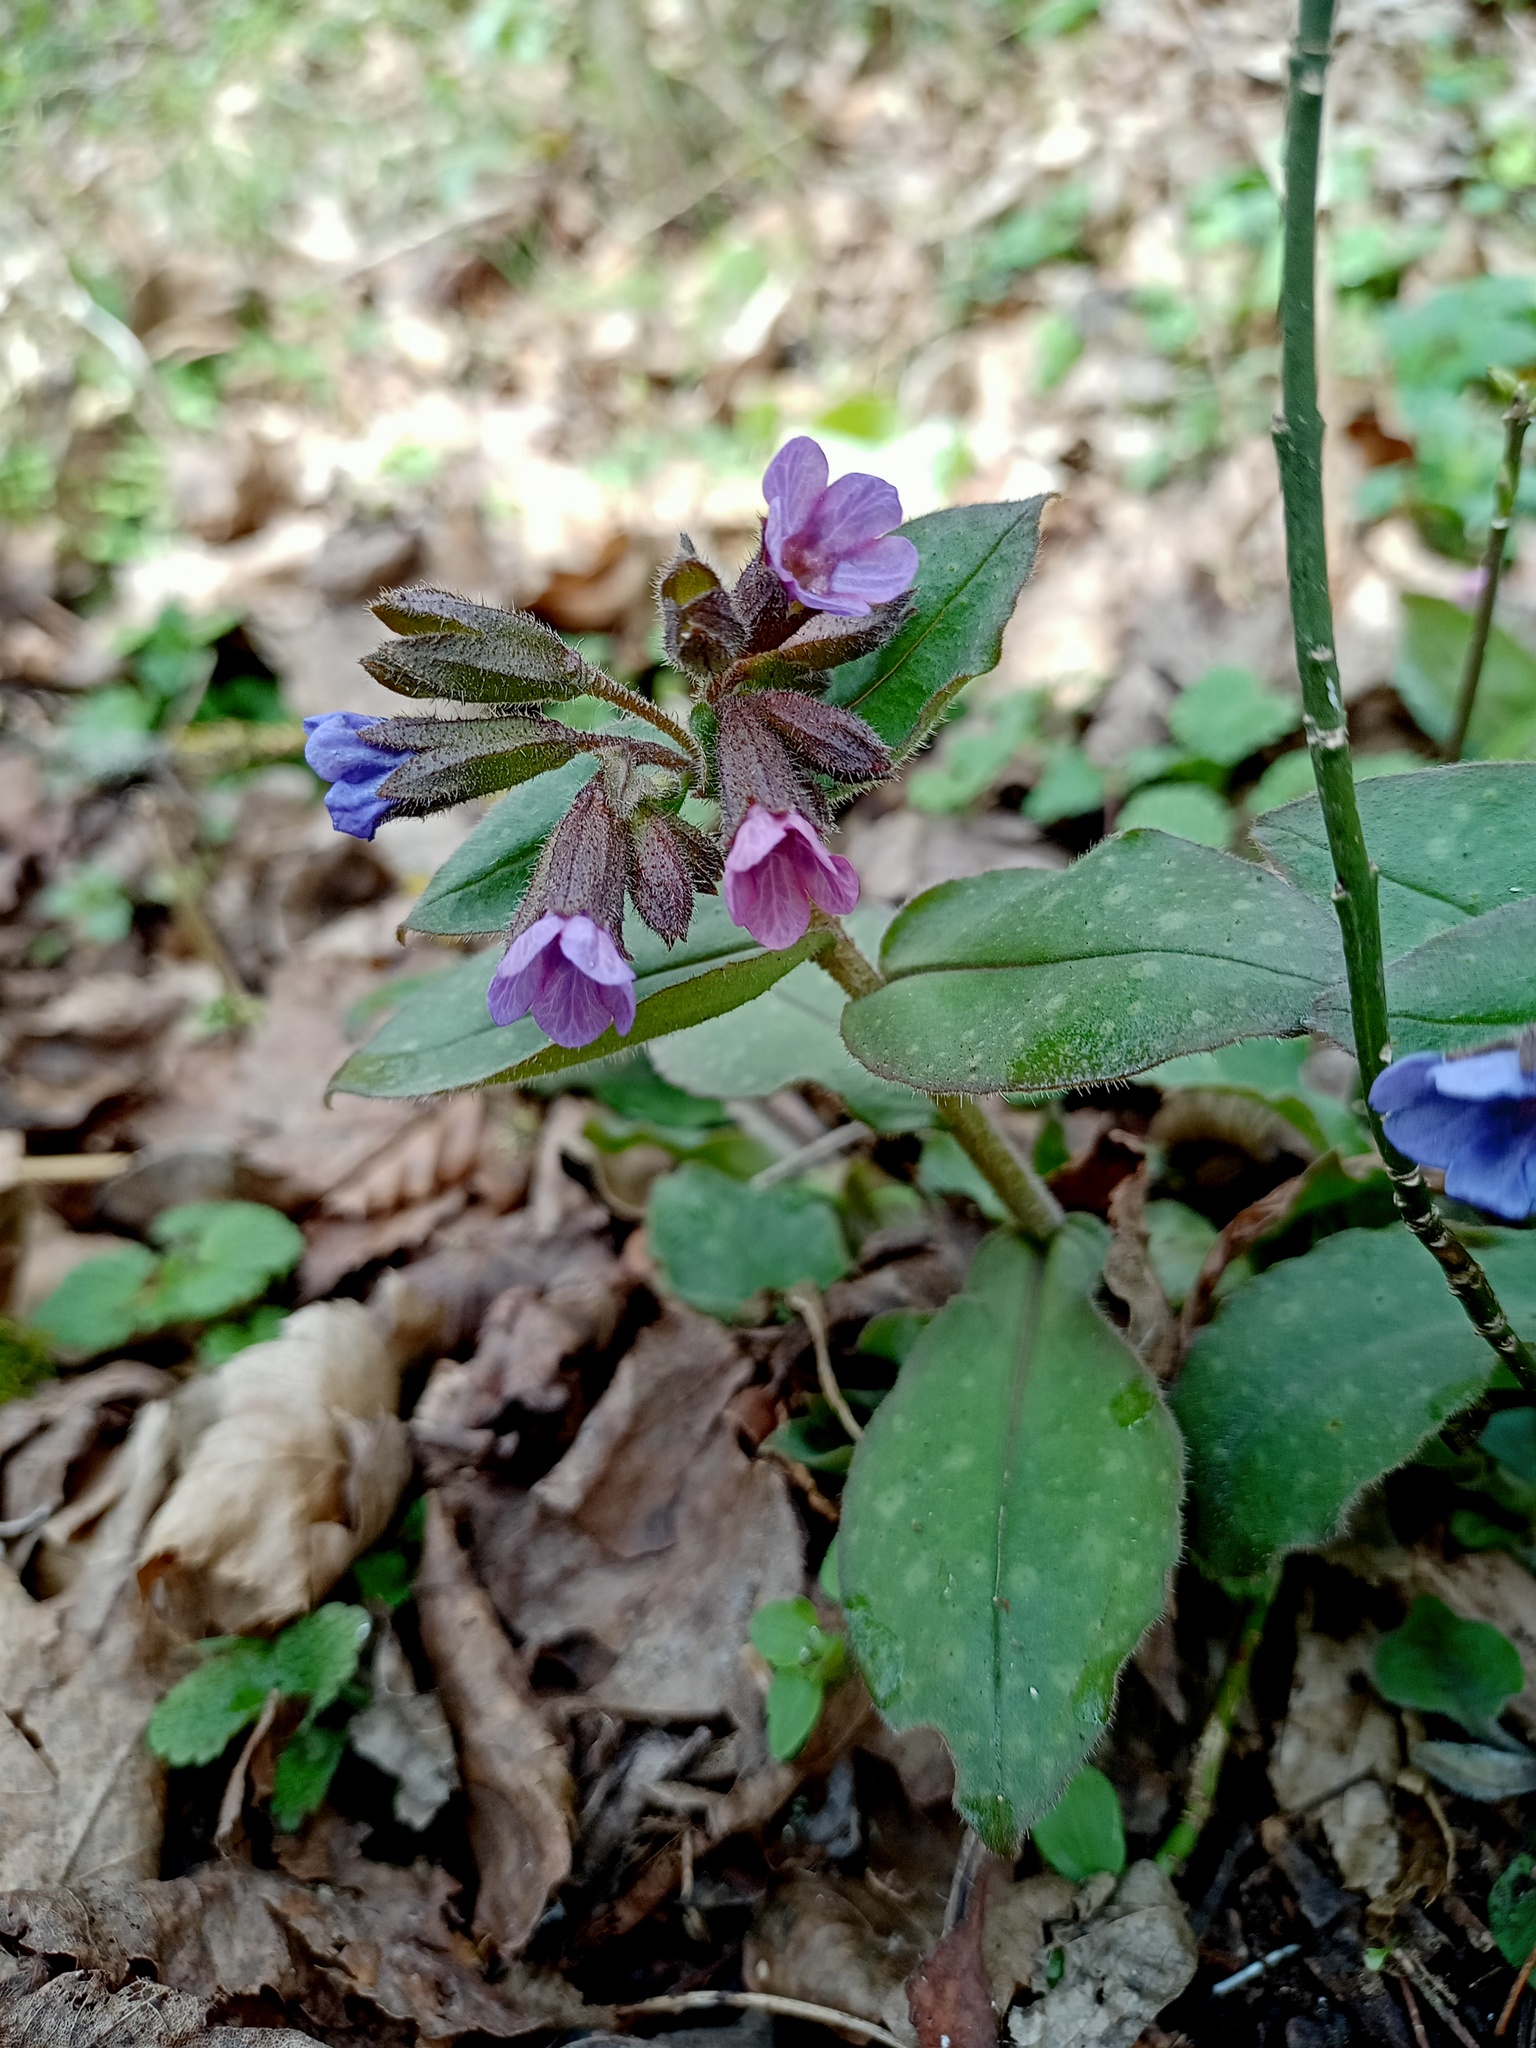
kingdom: Plantae
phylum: Tracheophyta
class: Magnoliopsida
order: Boraginales
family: Boraginaceae
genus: Pulmonaria
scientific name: Pulmonaria officinalis
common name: Lungwort
